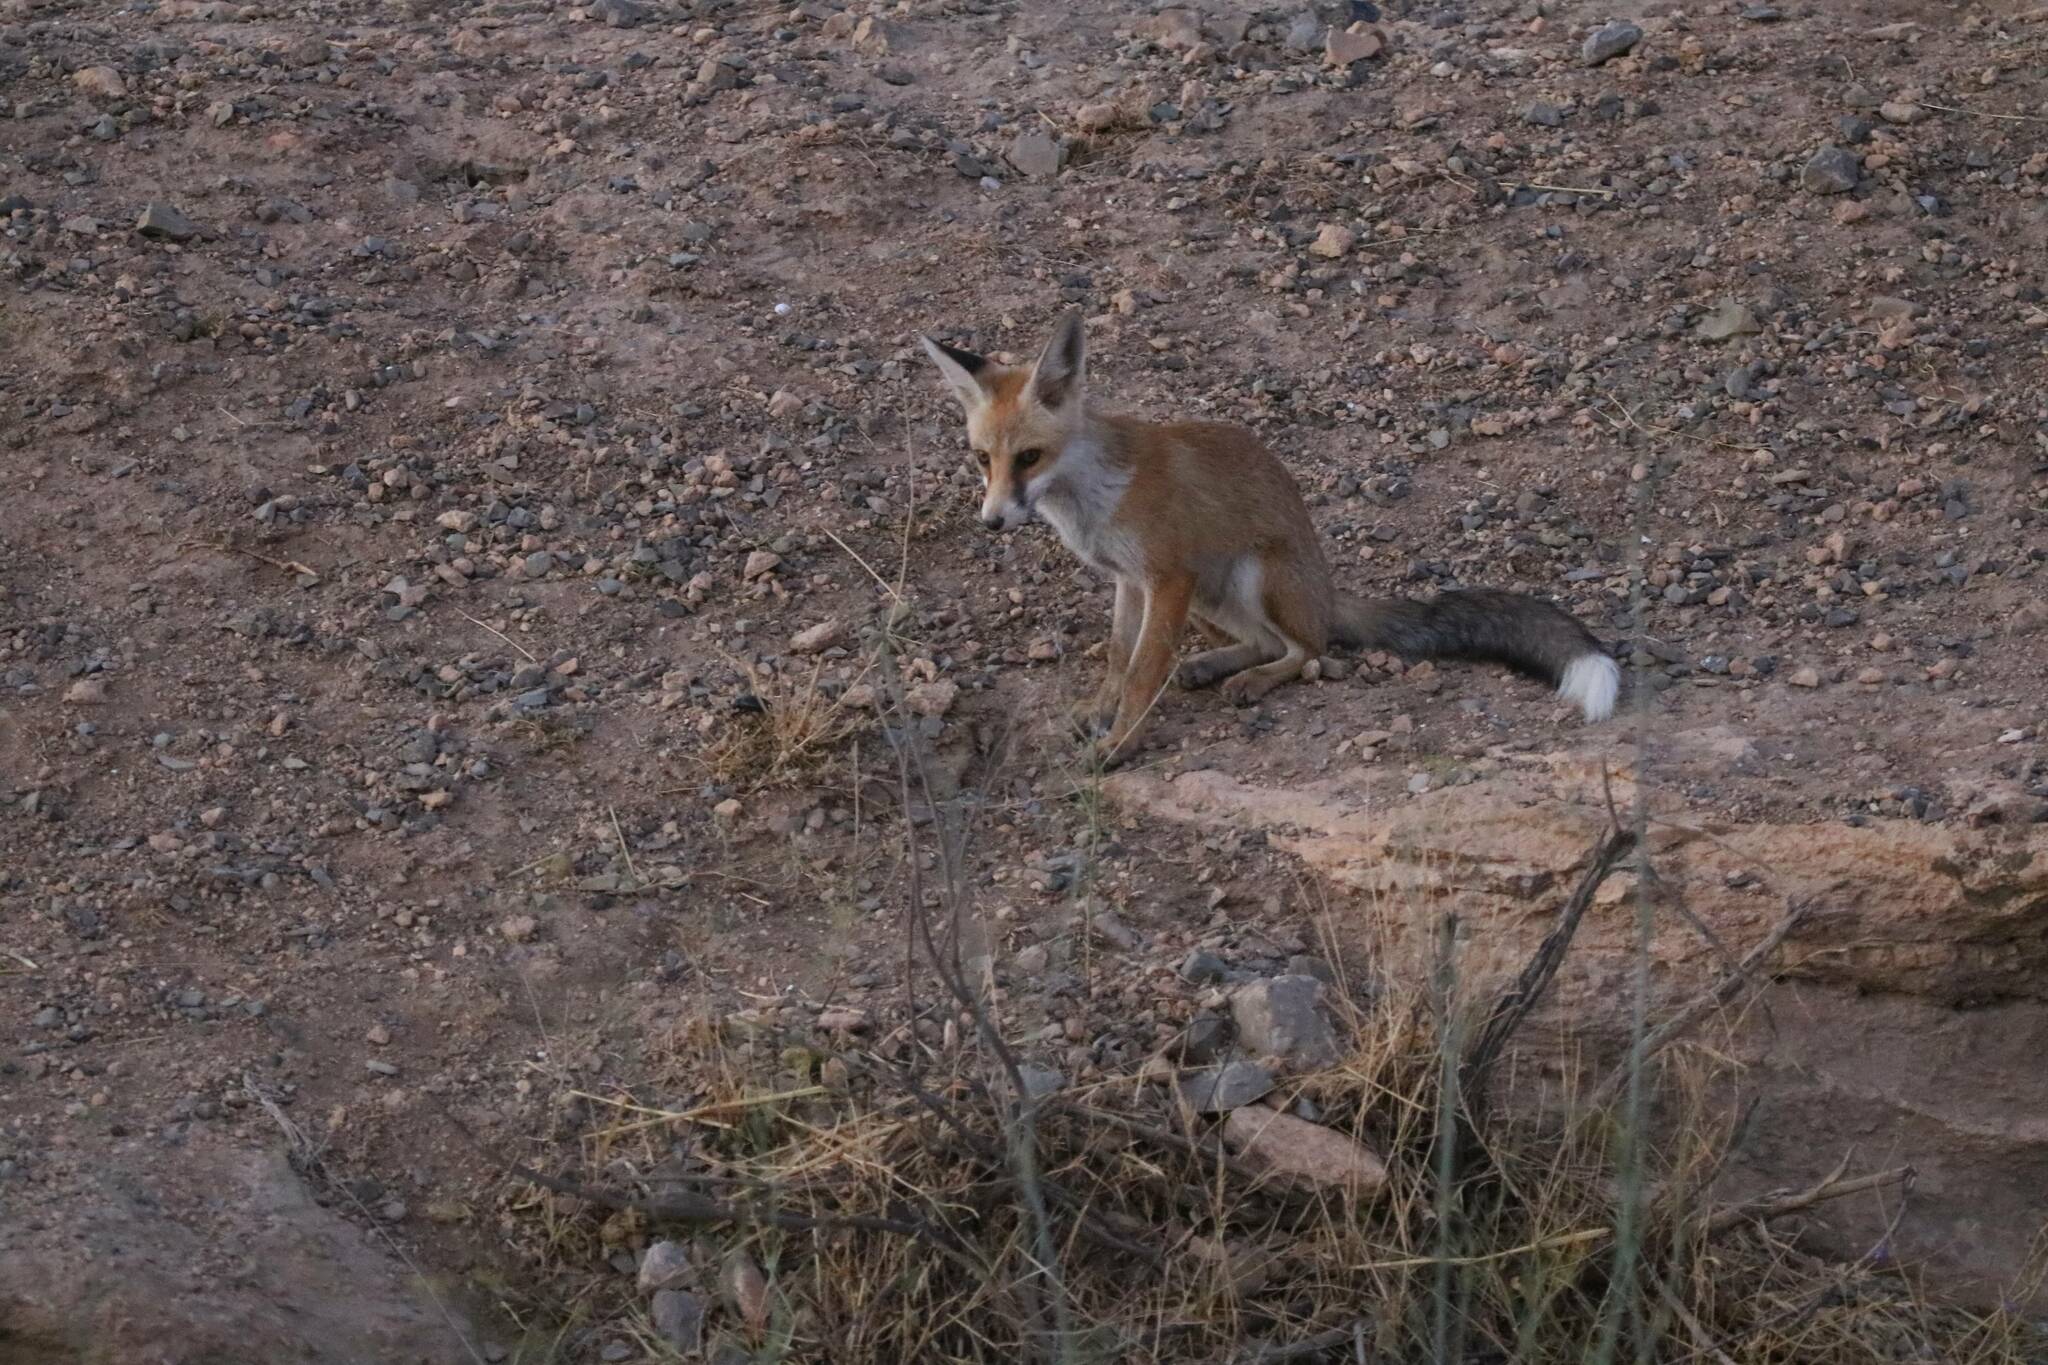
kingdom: Animalia
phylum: Chordata
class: Mammalia
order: Carnivora
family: Canidae
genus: Vulpes
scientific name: Vulpes vulpes
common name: Red fox
